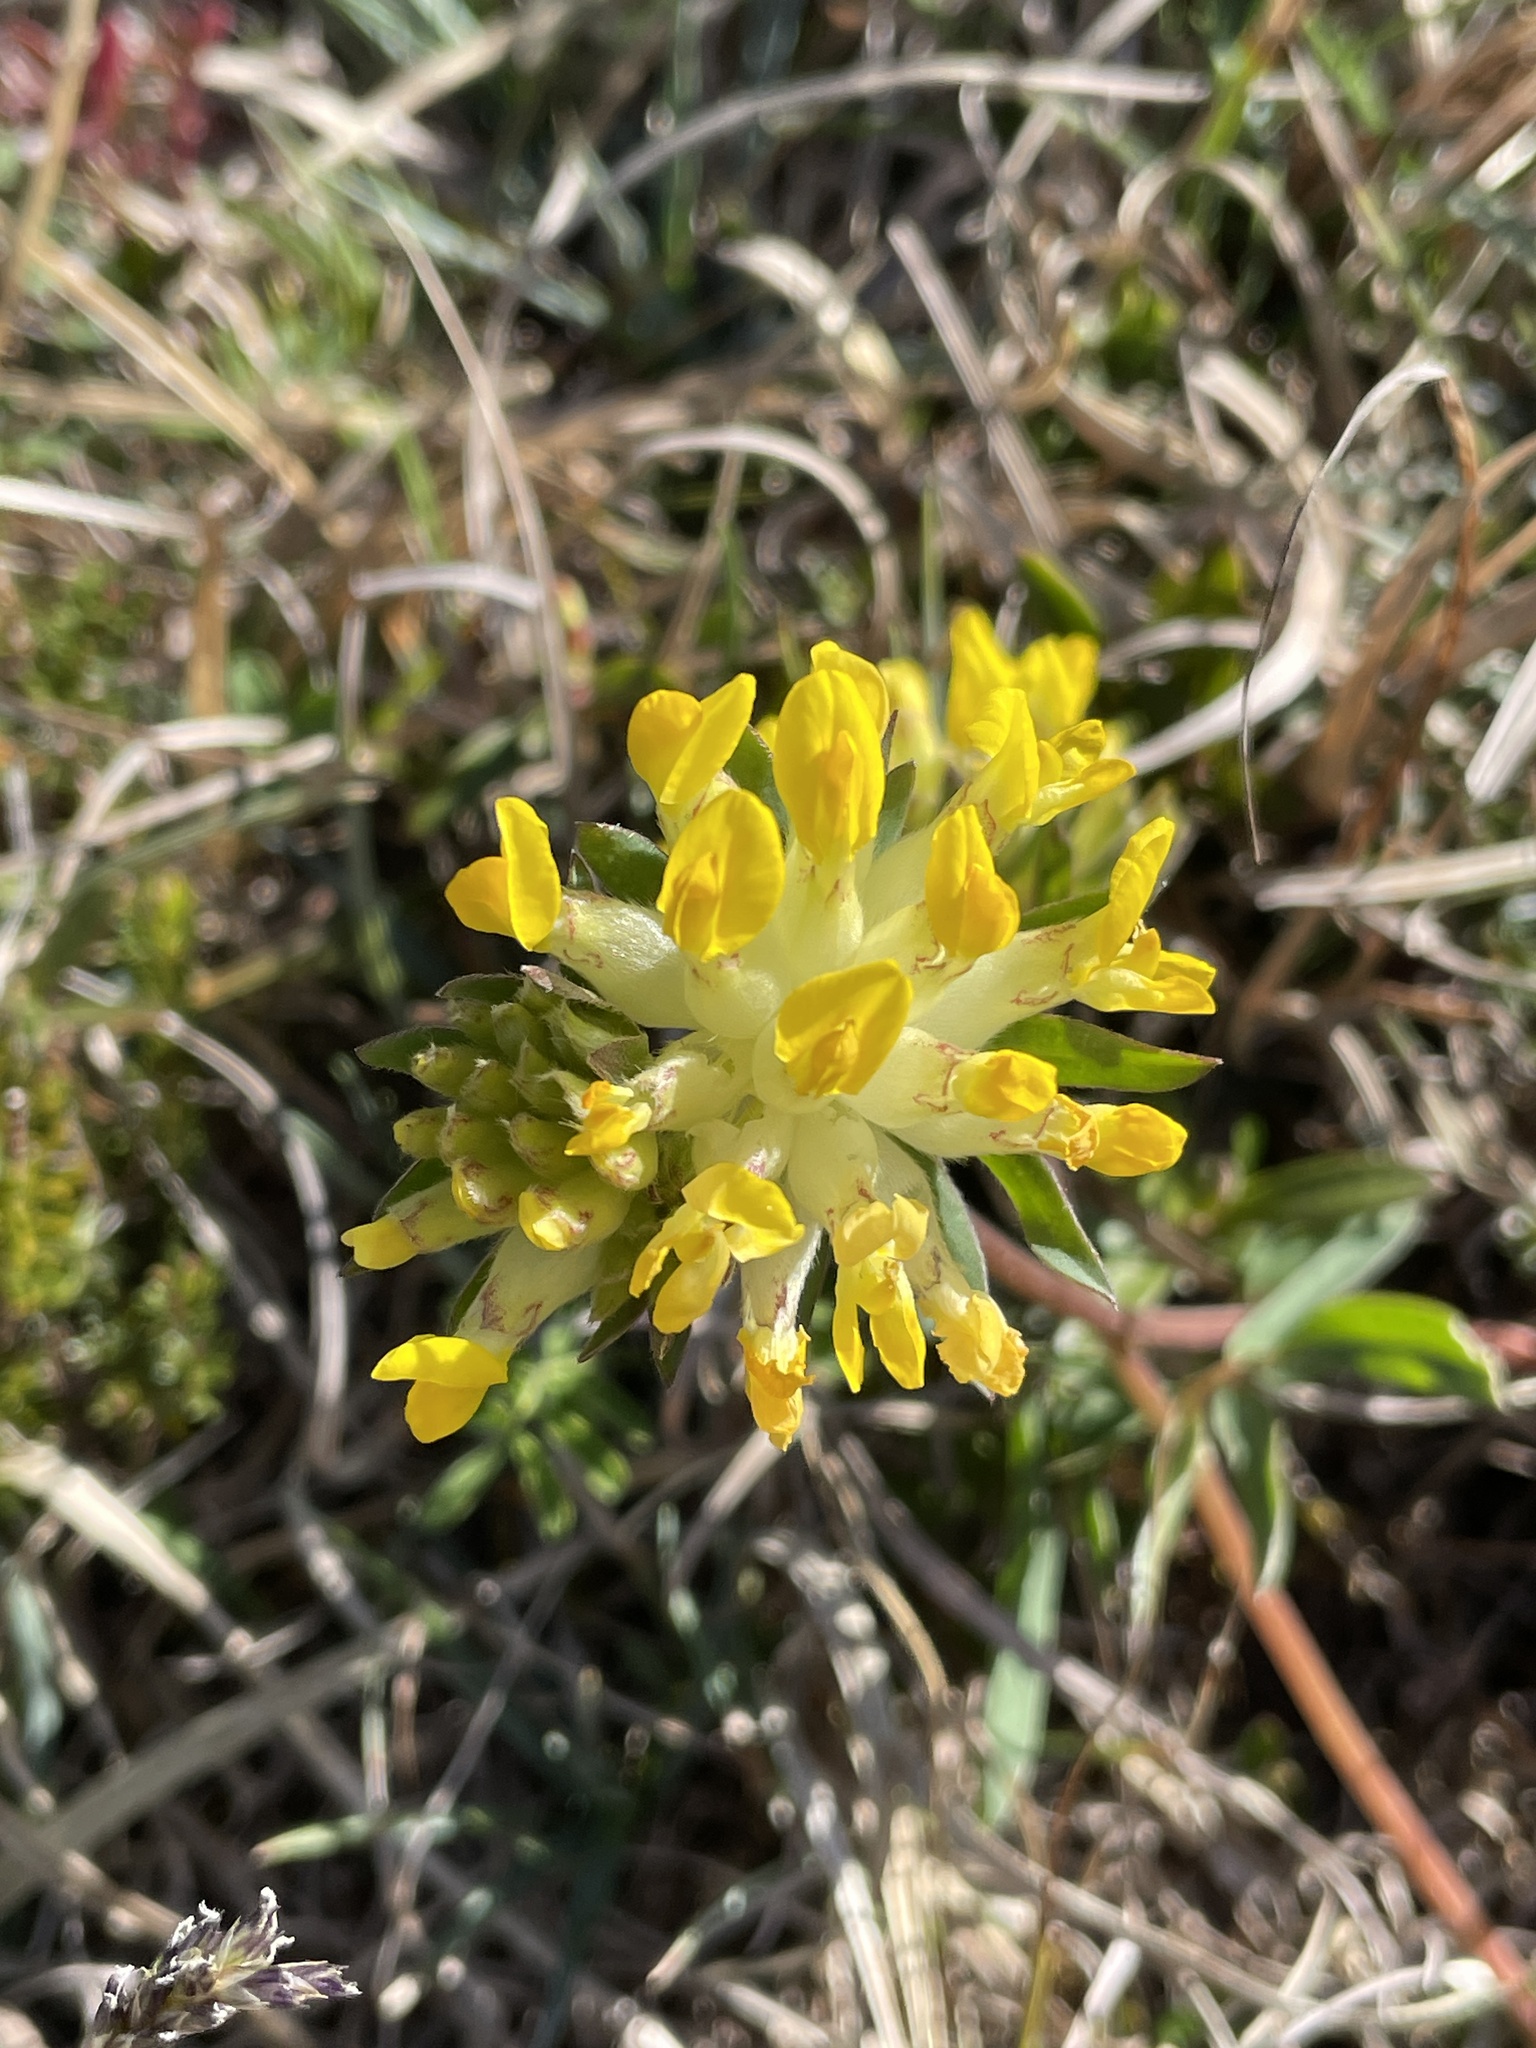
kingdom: Plantae
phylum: Tracheophyta
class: Magnoliopsida
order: Fabales
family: Fabaceae
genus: Anthyllis
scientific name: Anthyllis vulneraria
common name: Kidney vetch
